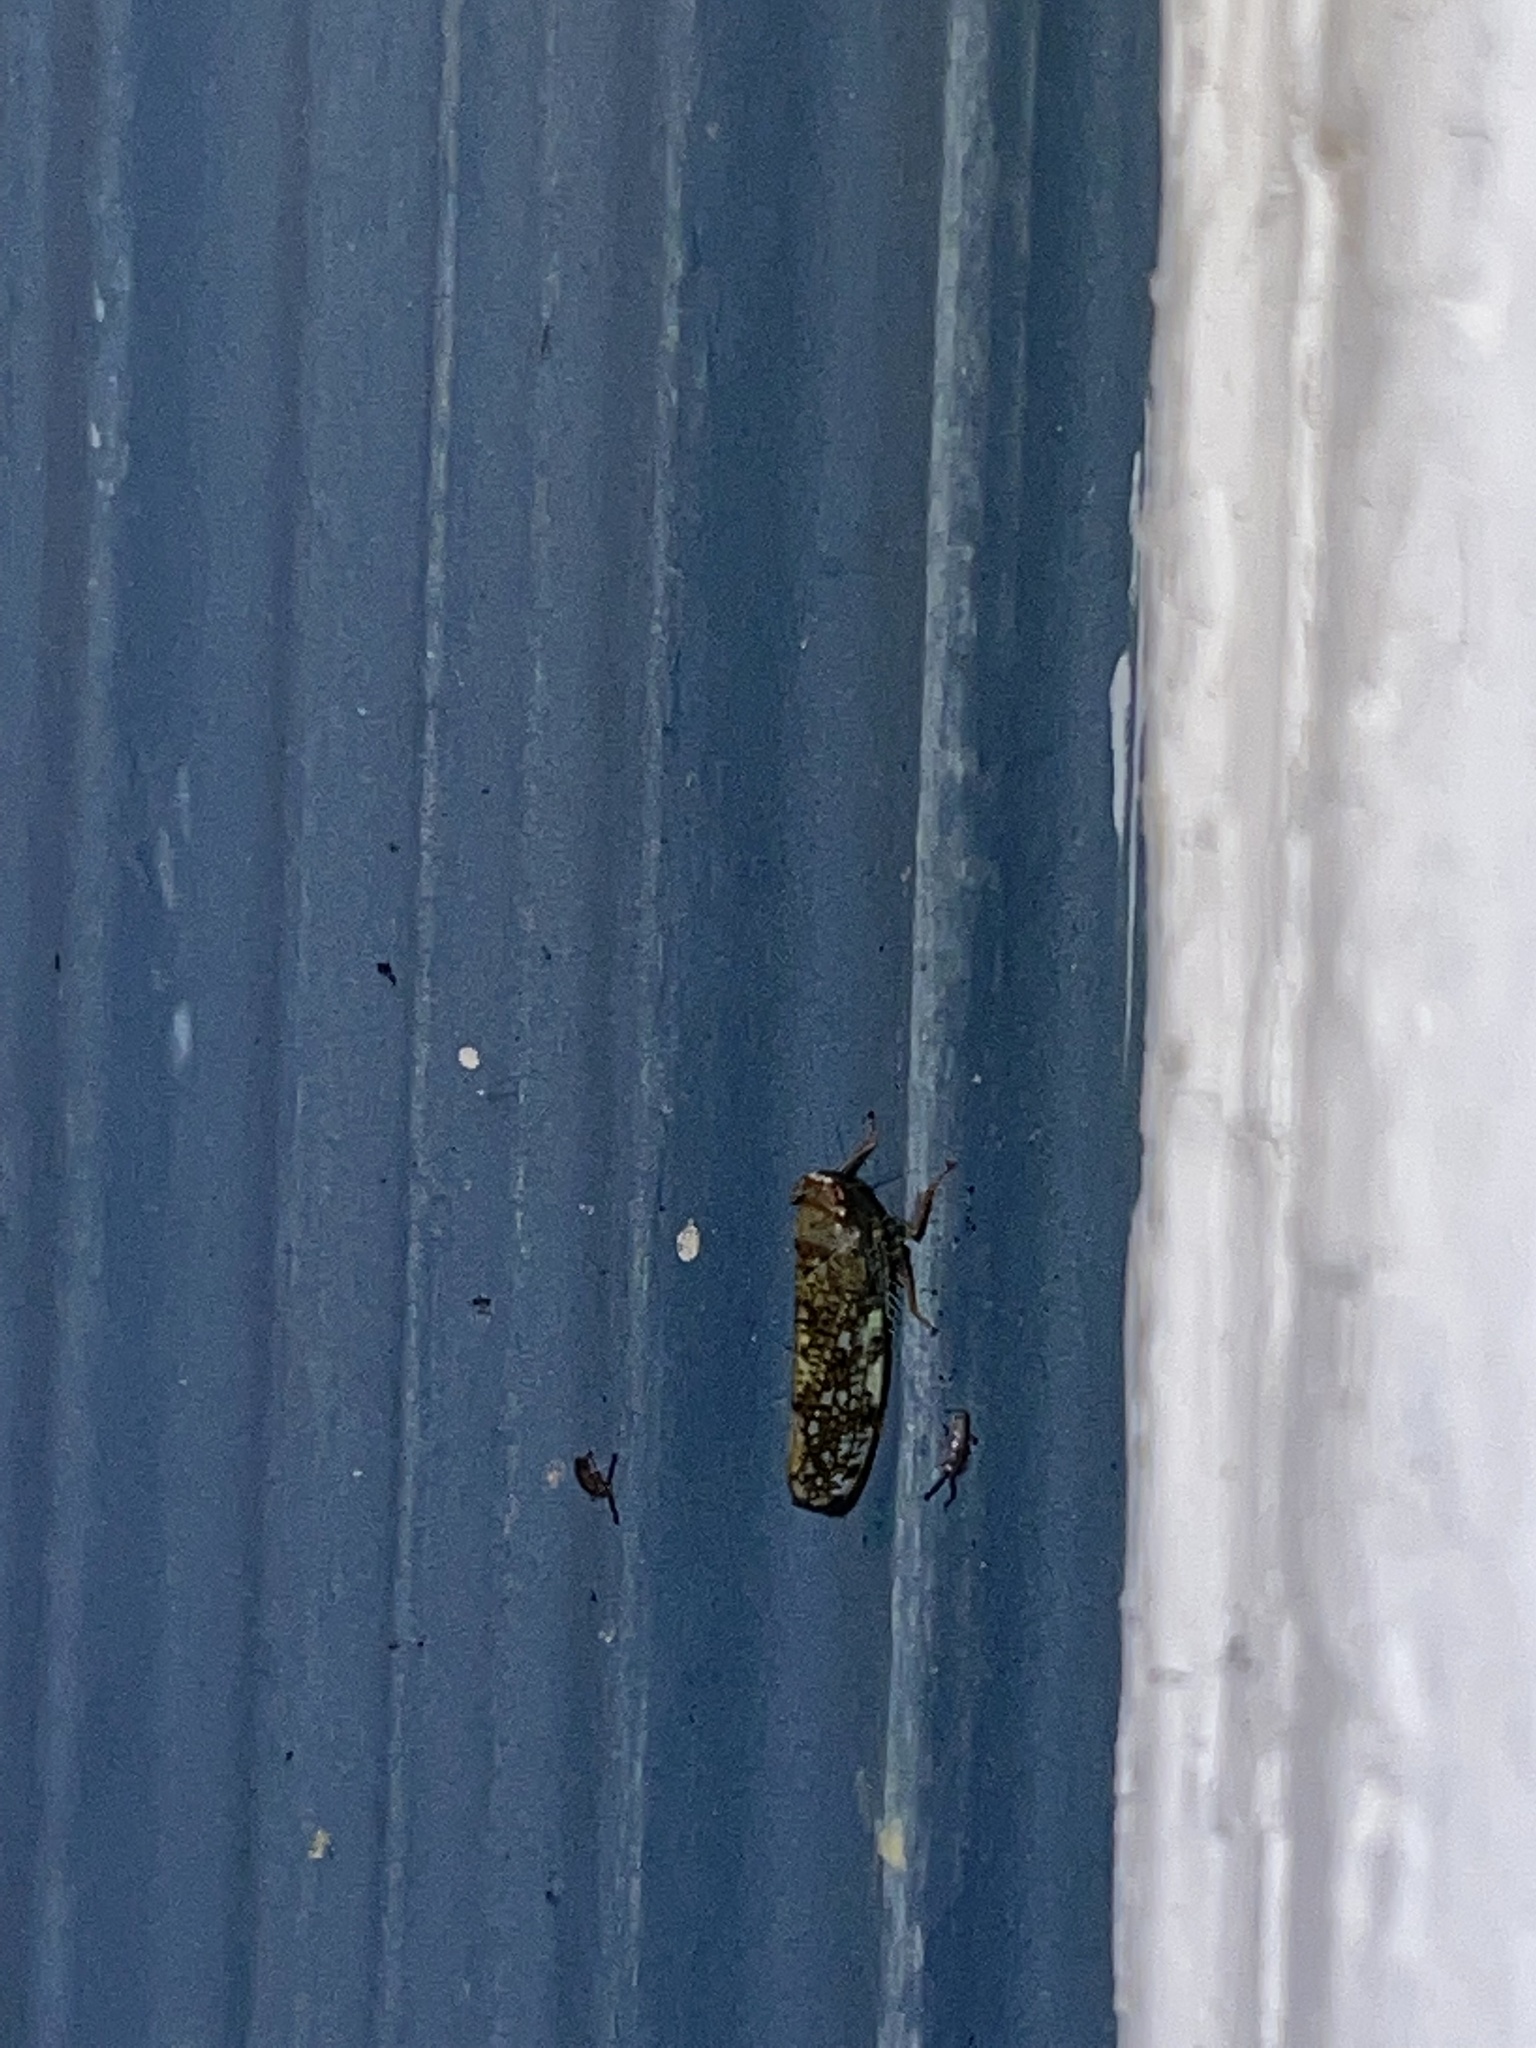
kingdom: Animalia
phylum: Arthropoda
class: Insecta
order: Hemiptera
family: Cicadellidae
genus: Orientus
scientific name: Orientus ishidae
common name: Japanese leafhopper
